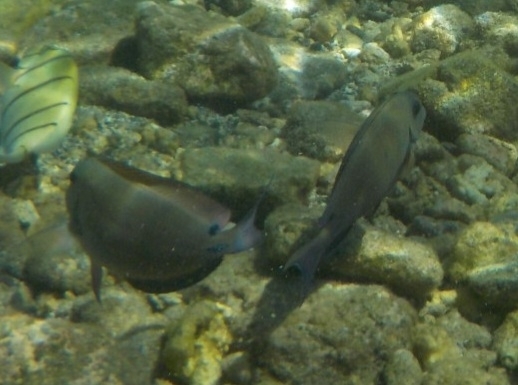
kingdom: Animalia
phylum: Chordata
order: Perciformes
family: Acanthuridae
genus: Acanthurus
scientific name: Acanthurus nigrofuscus
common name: Blackspot surgeonfish
